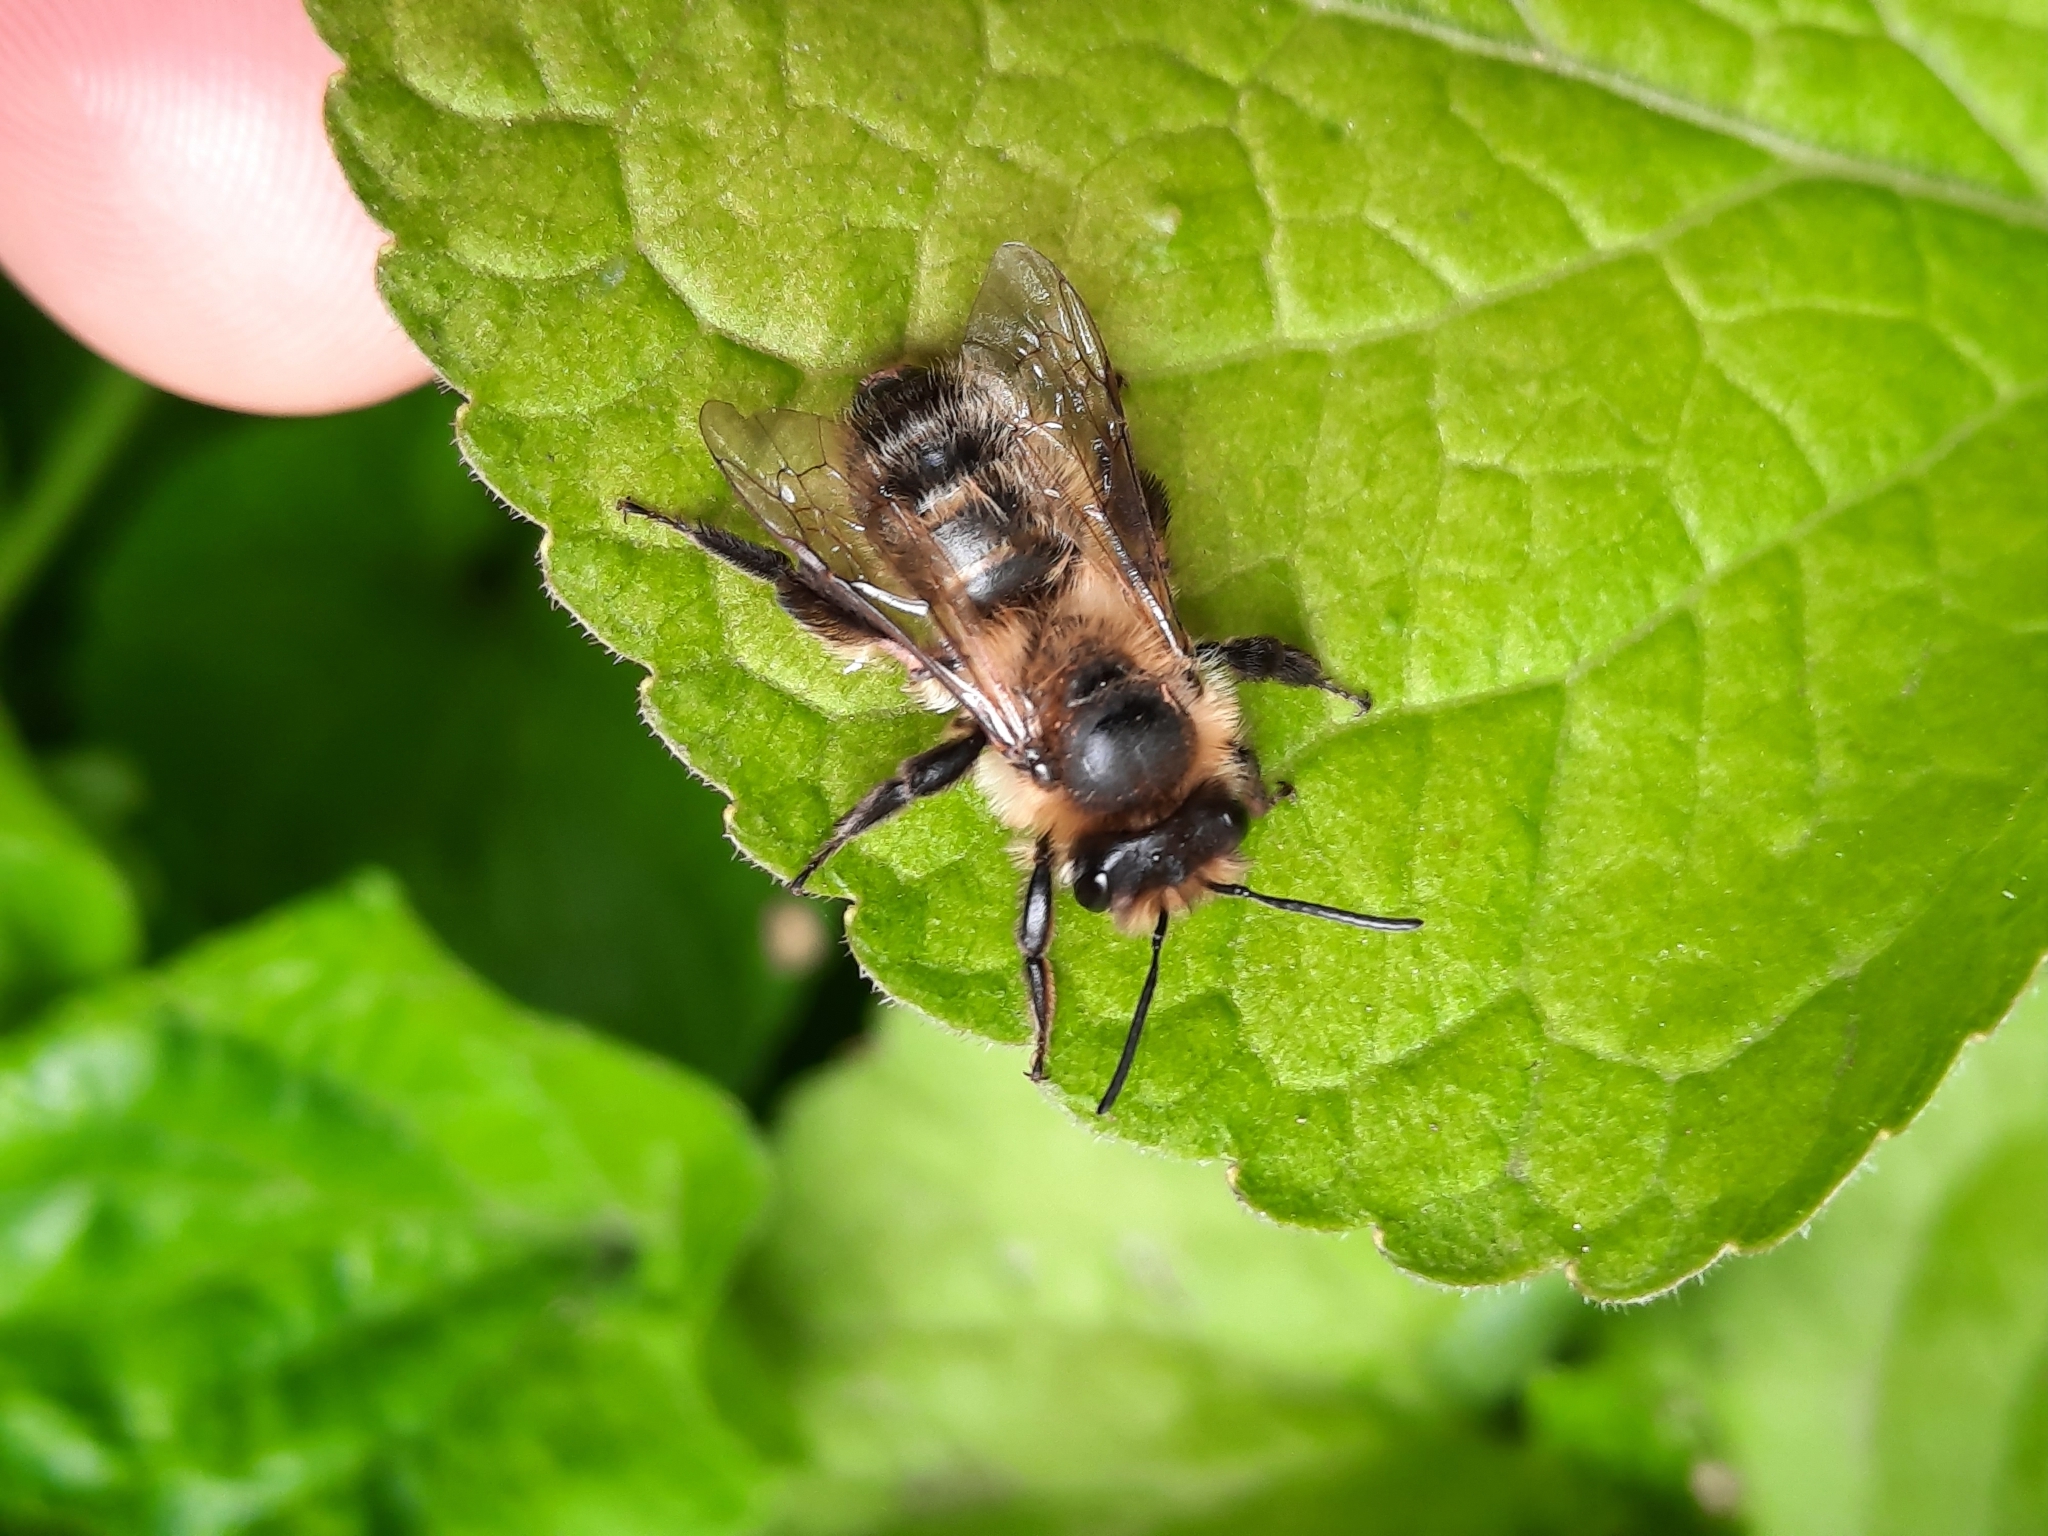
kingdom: Animalia
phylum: Arthropoda
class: Insecta
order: Hymenoptera
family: Andrenidae
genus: Andrena
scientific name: Andrena carantonica
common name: Chocolate mining bee
